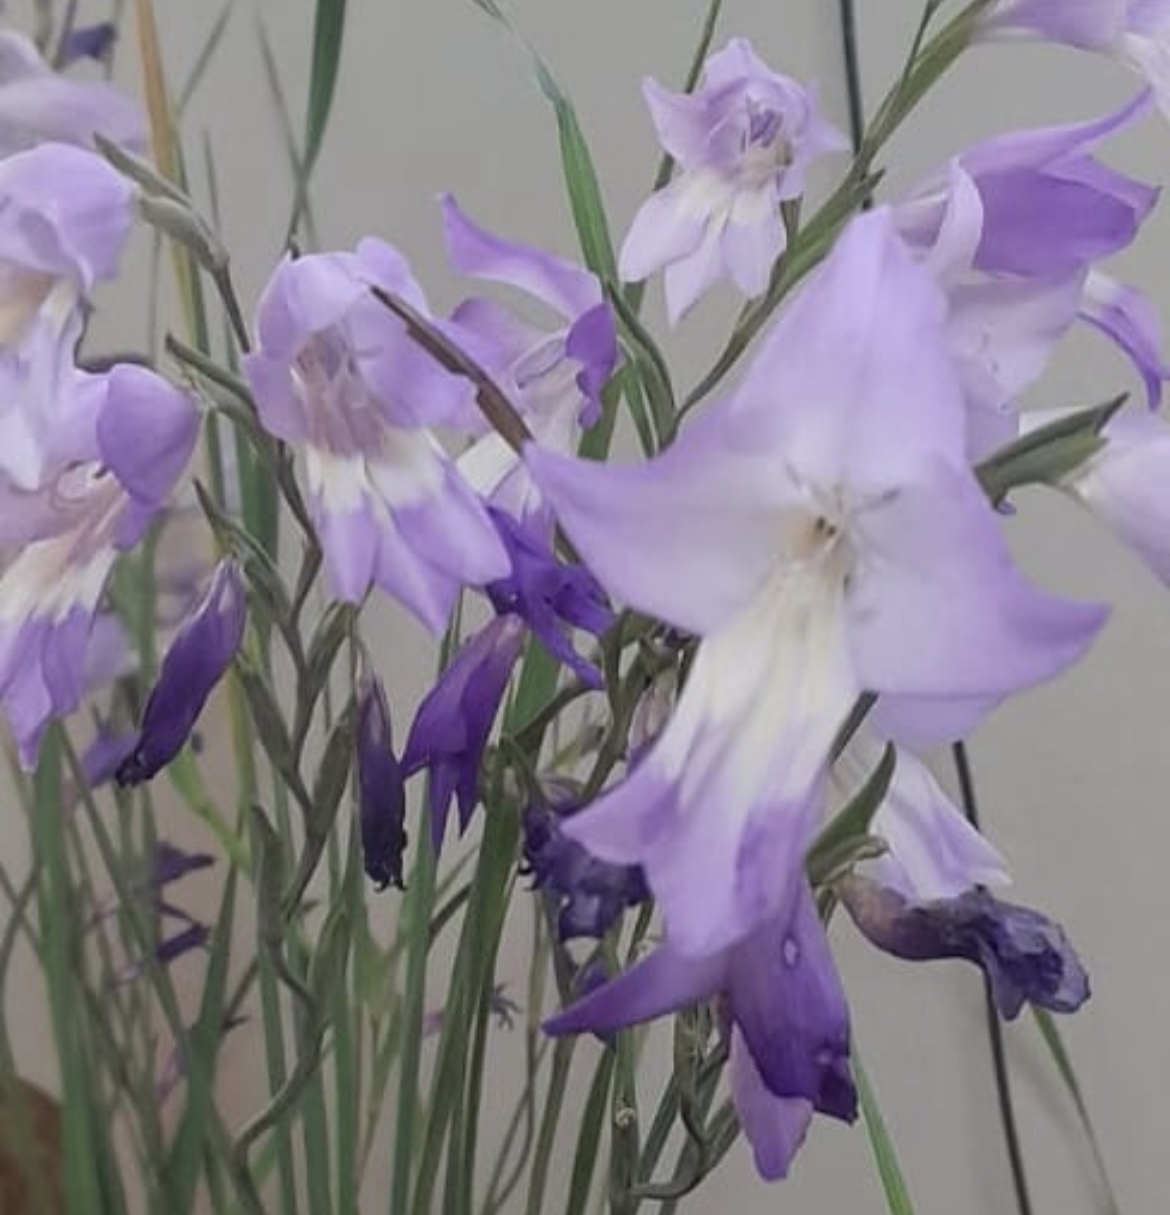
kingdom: Plantae
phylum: Tracheophyta
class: Liliopsida
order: Asparagales
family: Iridaceae
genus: Gladiolus
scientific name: Gladiolus rogersii
